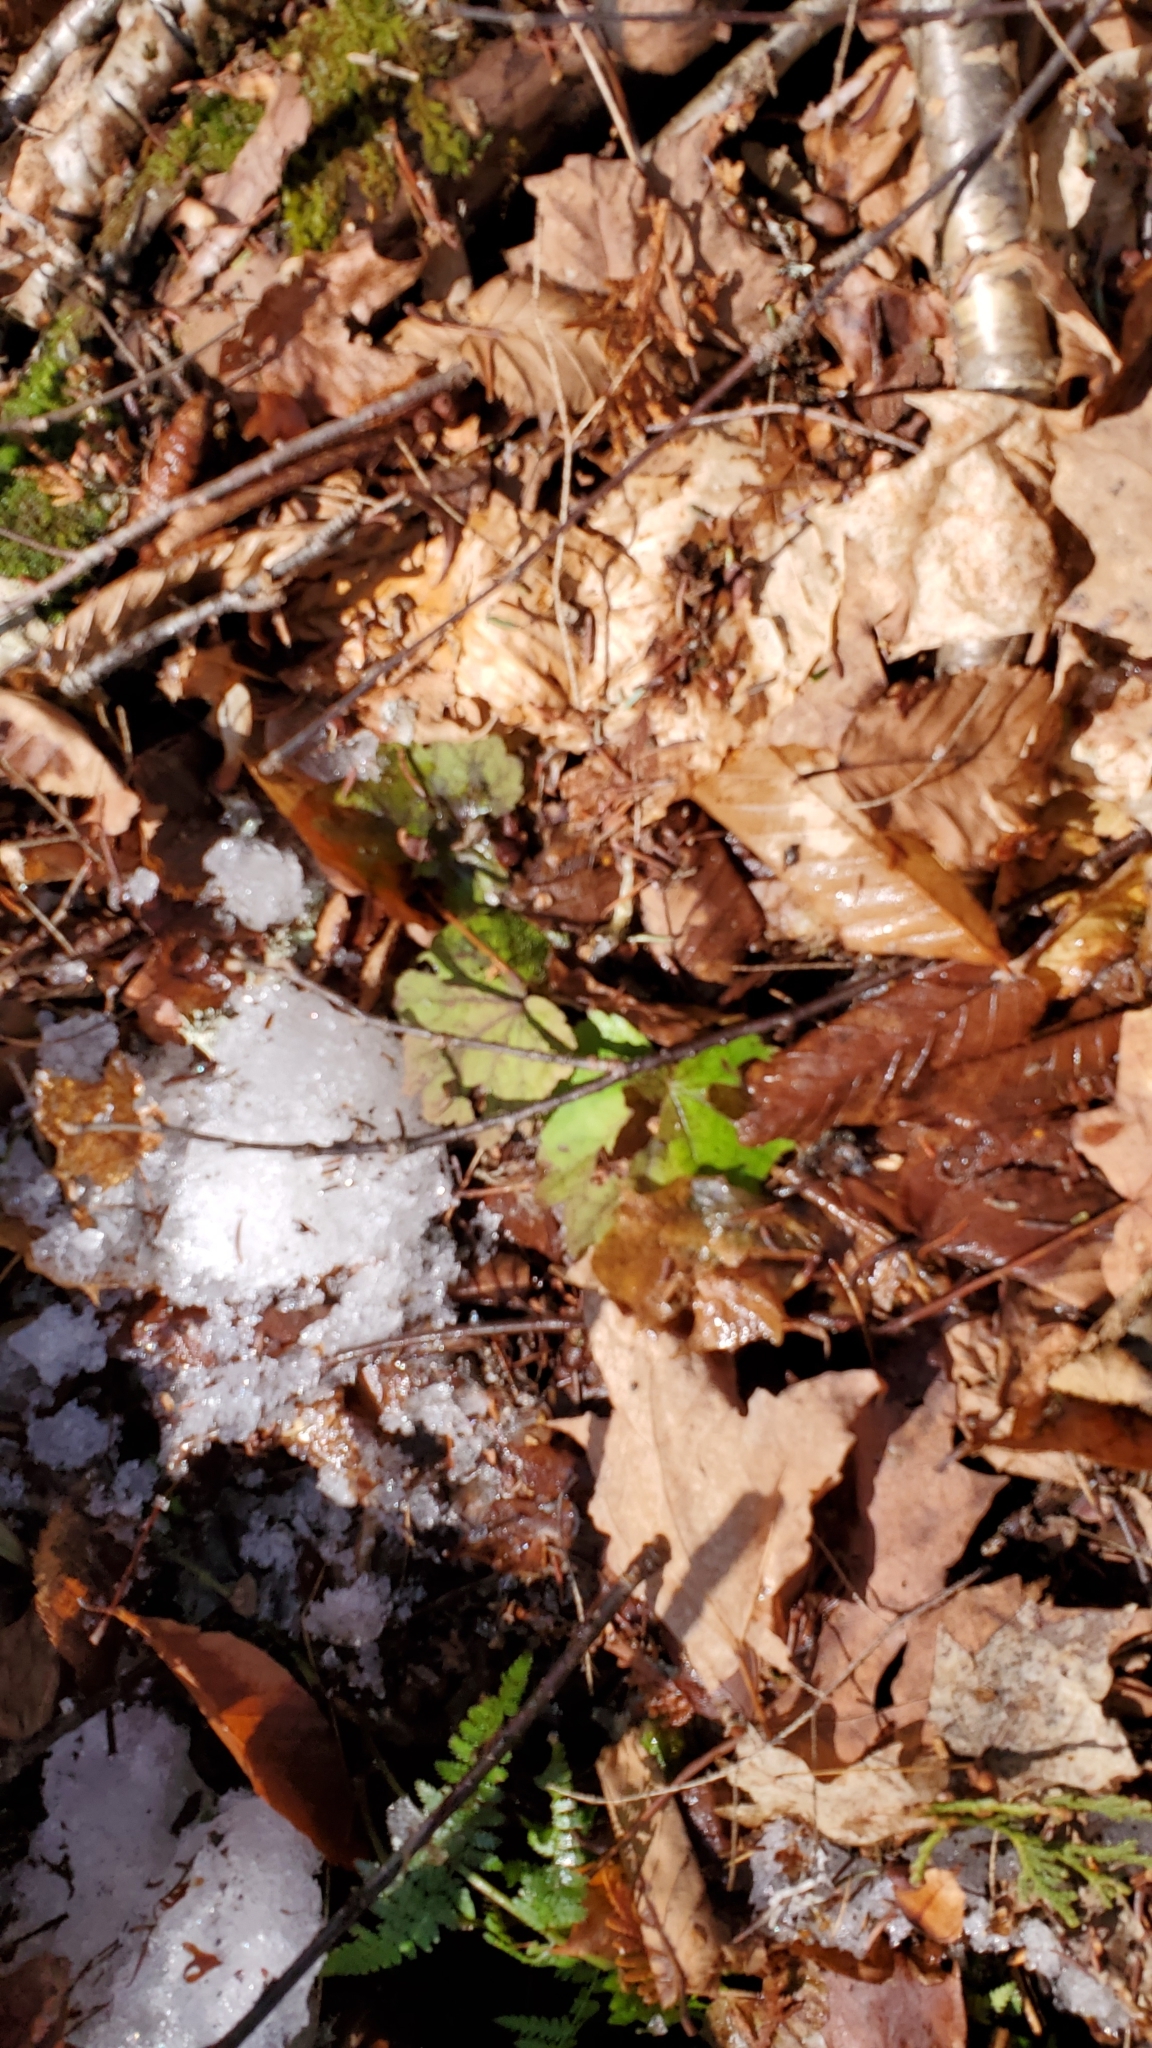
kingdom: Plantae
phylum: Tracheophyta
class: Magnoliopsida
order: Saxifragales
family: Saxifragaceae
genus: Tiarella
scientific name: Tiarella stolonifera
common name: Stoloniferous foamflower
